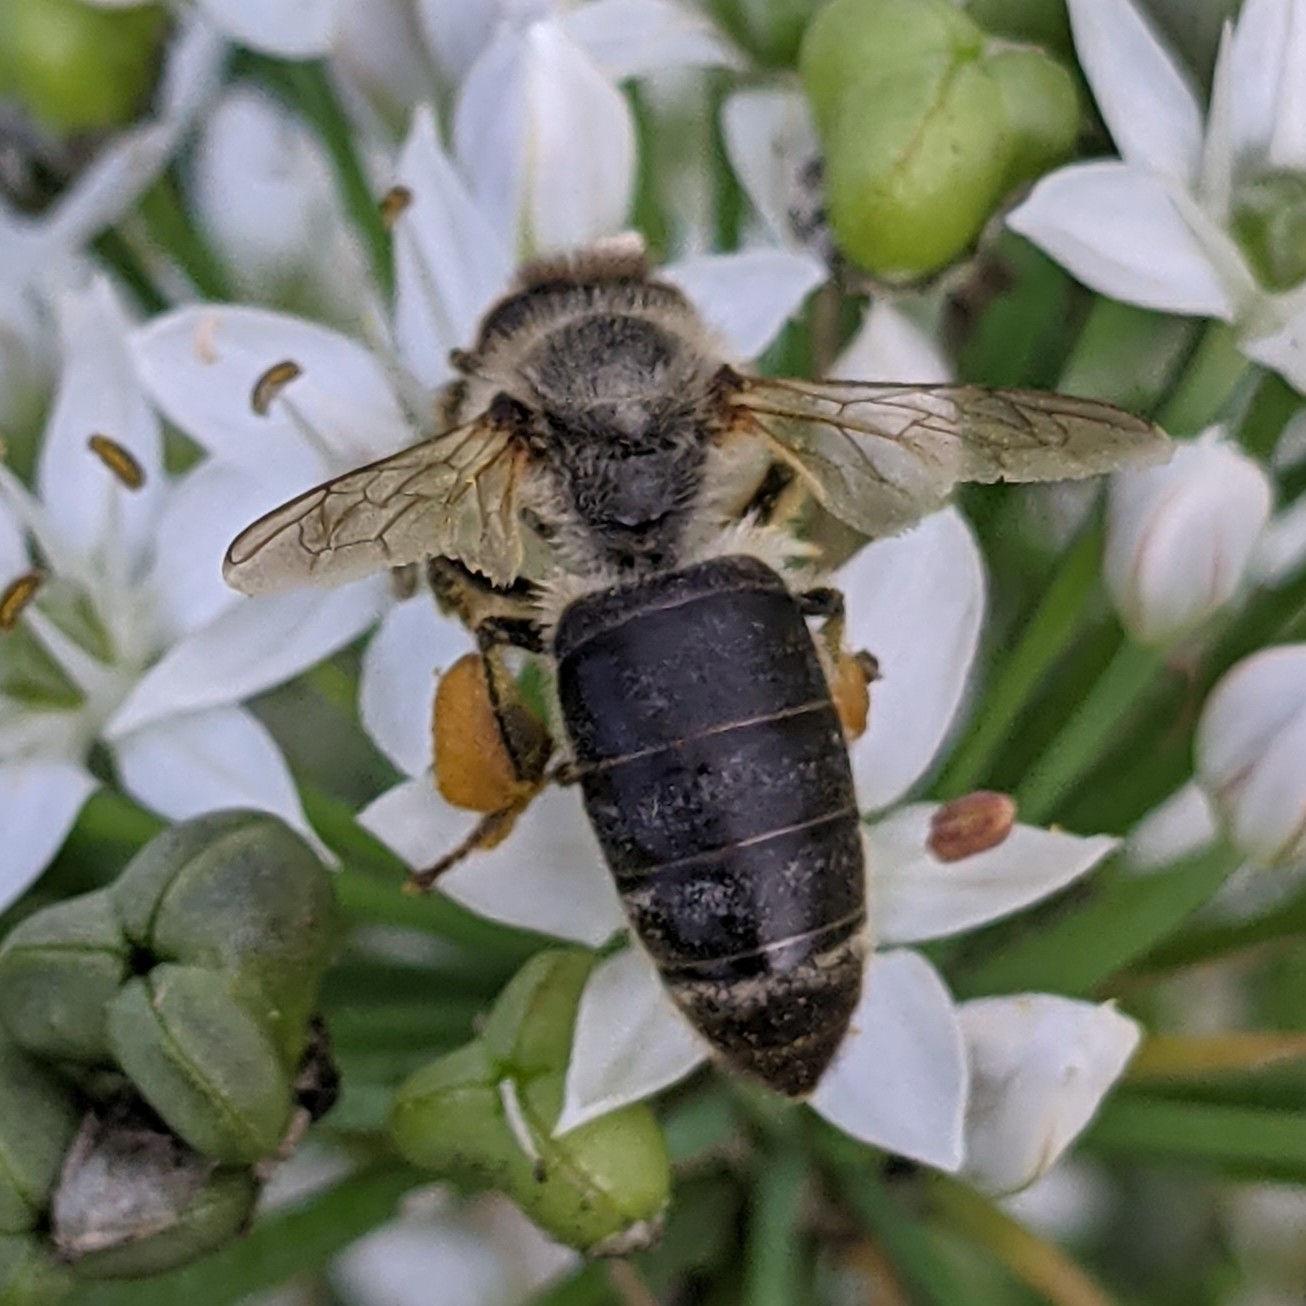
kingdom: Animalia
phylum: Arthropoda
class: Insecta
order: Hymenoptera
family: Apidae
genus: Apis
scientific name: Apis mellifera
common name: Honey bee
